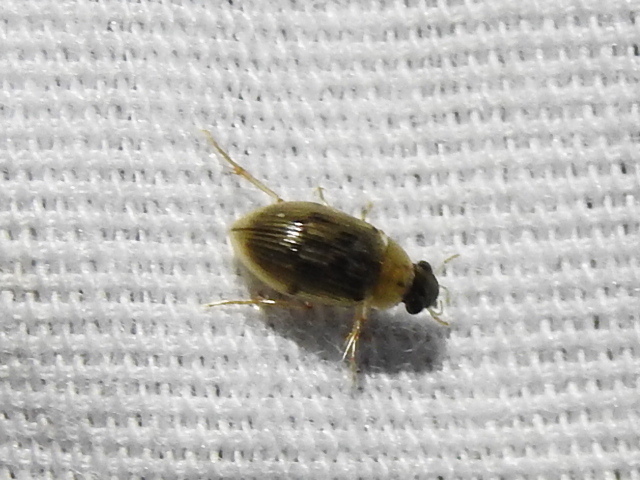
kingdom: Animalia
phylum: Arthropoda
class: Insecta
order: Coleoptera
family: Hydrophilidae
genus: Berosus
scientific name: Berosus
